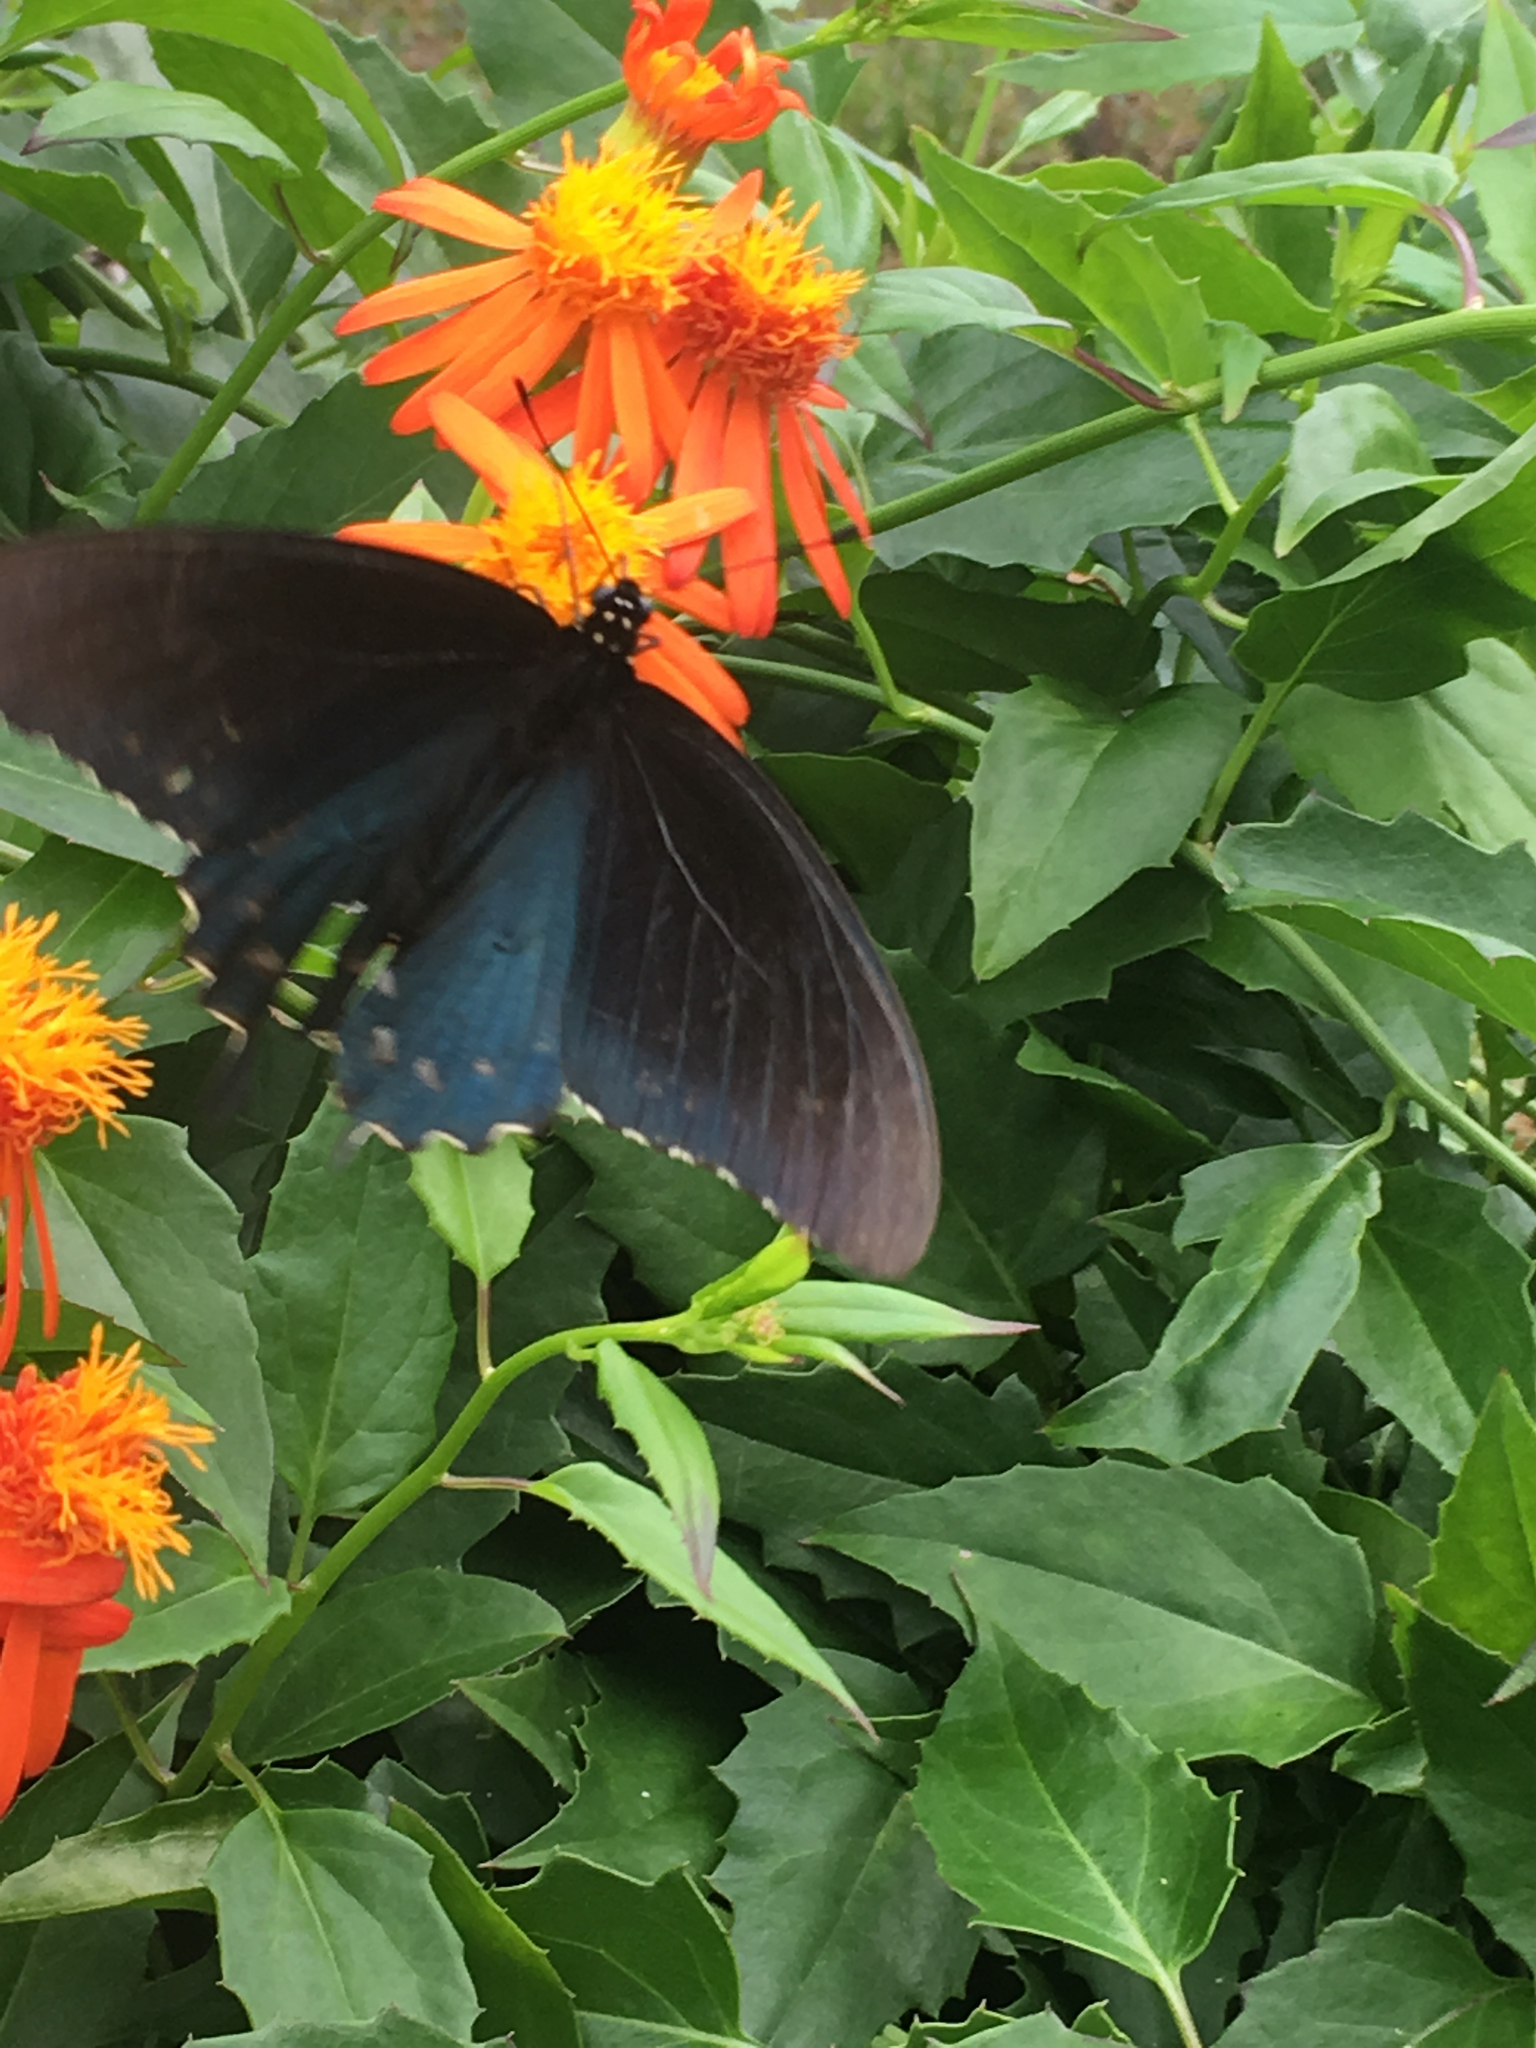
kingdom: Animalia
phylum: Arthropoda
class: Insecta
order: Lepidoptera
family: Papilionidae
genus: Battus
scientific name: Battus philenor
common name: Pipevine swallowtail
